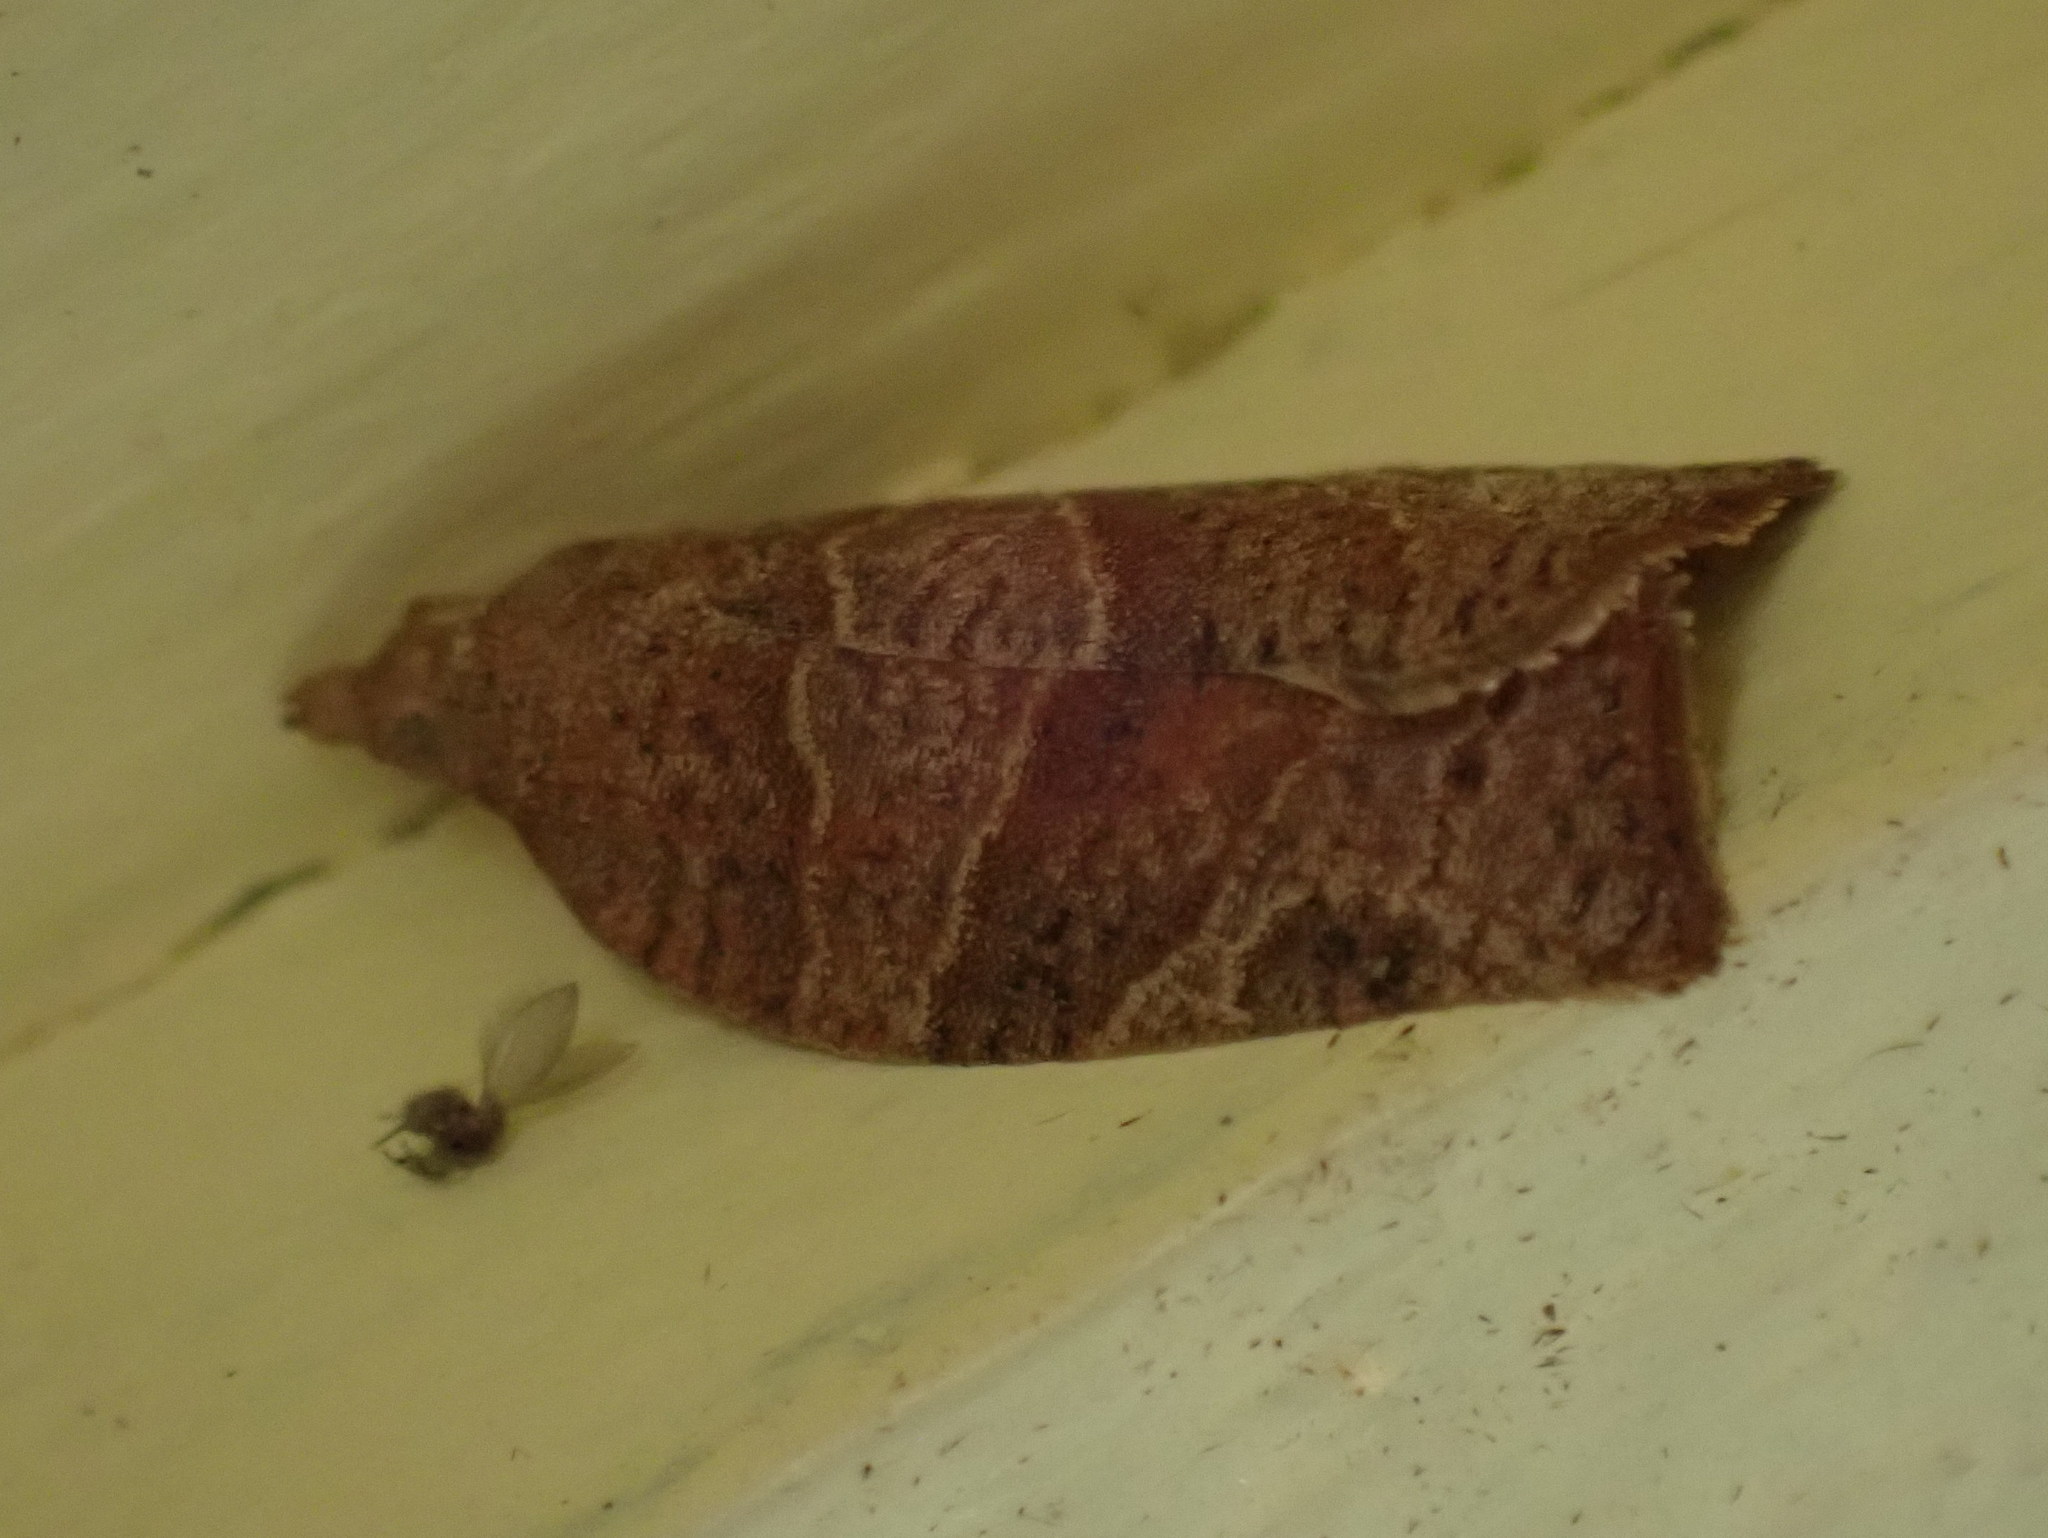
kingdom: Animalia
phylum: Arthropoda
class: Insecta
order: Lepidoptera
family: Tortricidae
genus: Pandemis
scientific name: Pandemis limitata
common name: Three-lined leafroller moth
